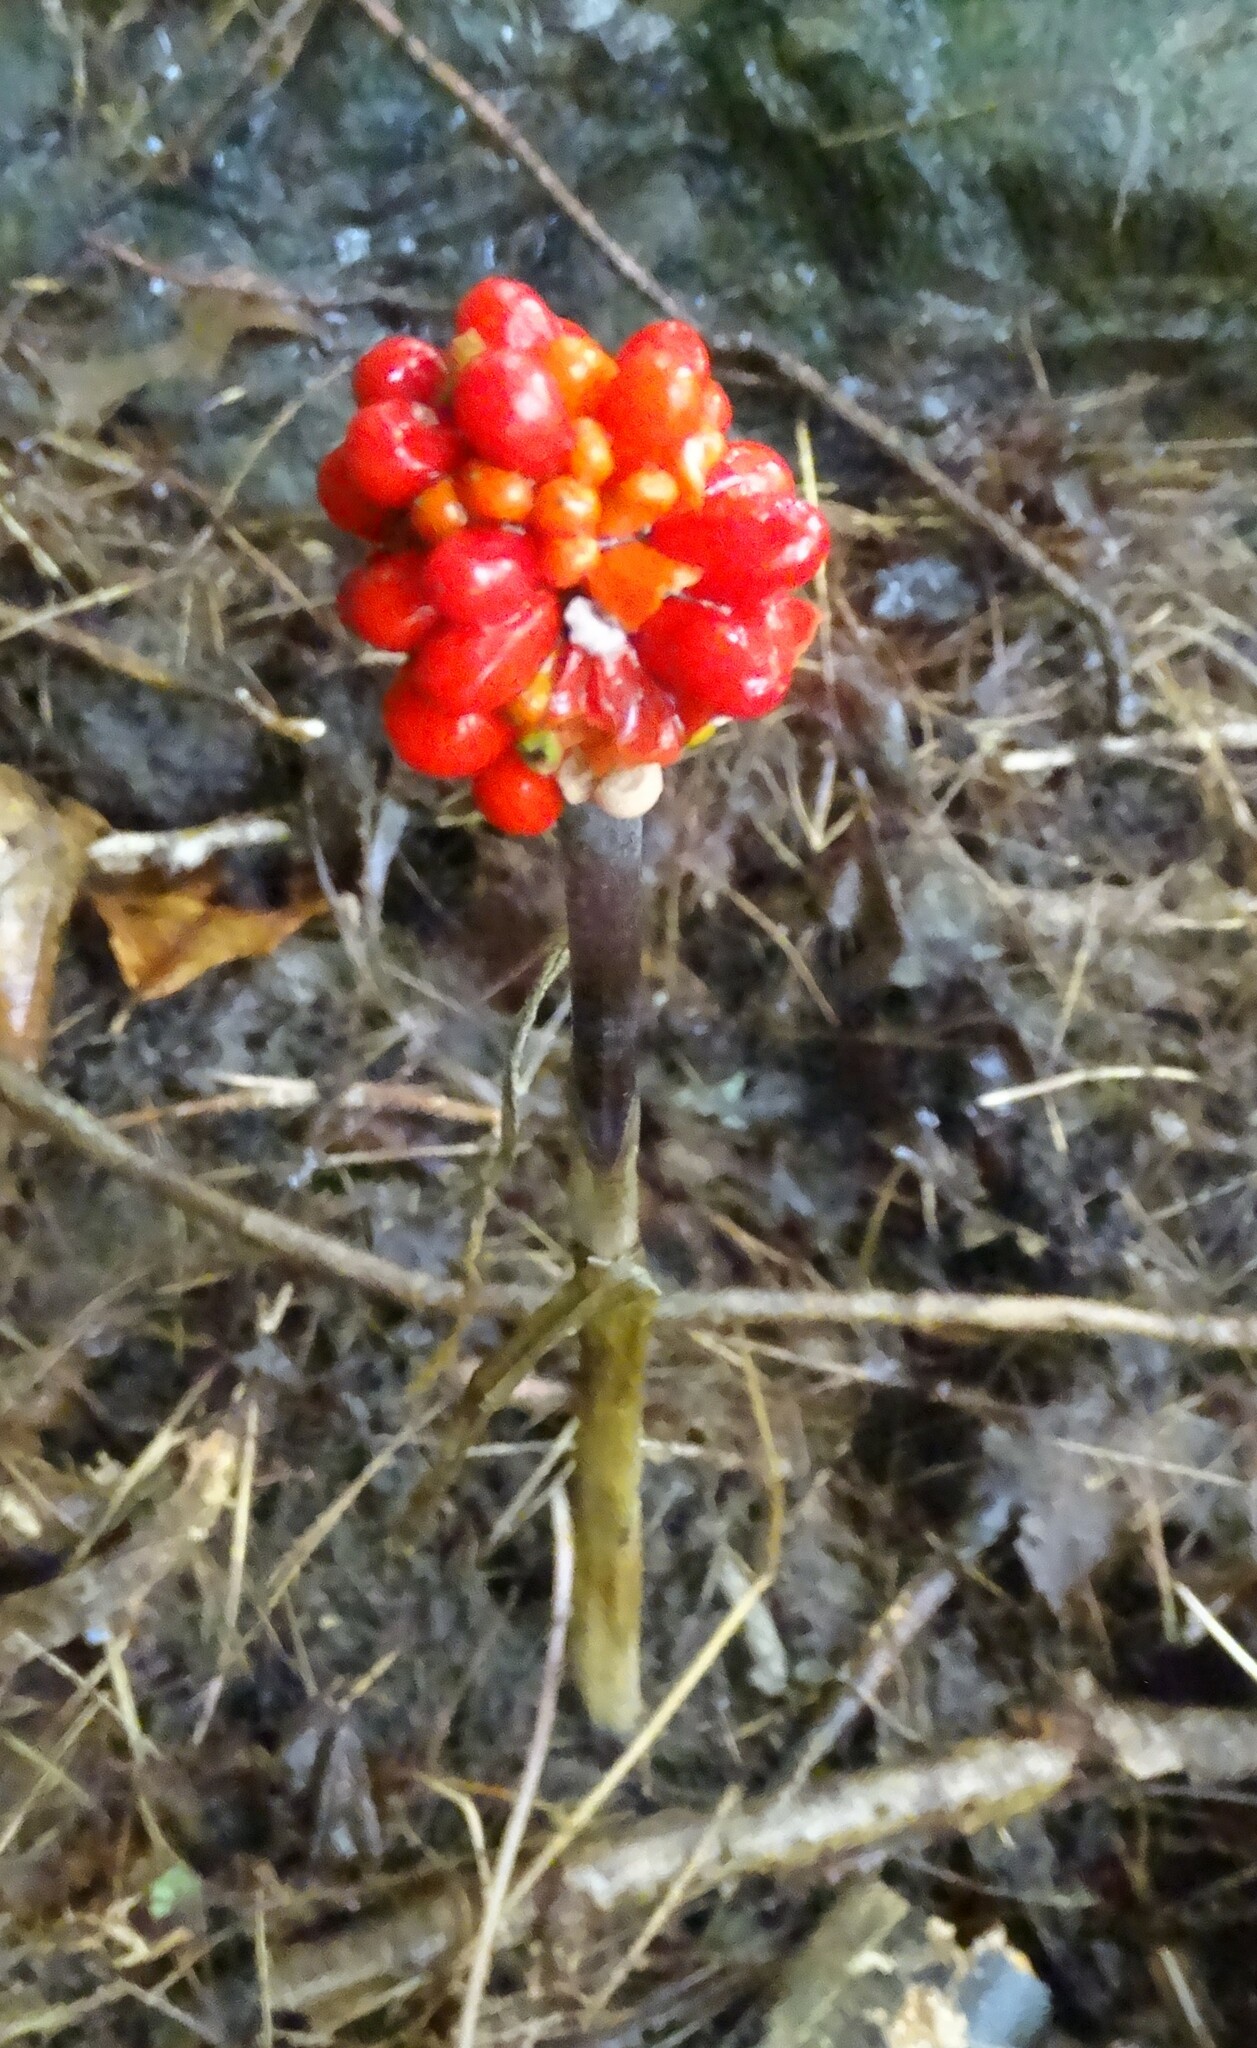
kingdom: Plantae
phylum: Tracheophyta
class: Liliopsida
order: Alismatales
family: Araceae
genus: Arisaema
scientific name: Arisaema triphyllum
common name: Jack-in-the-pulpit
